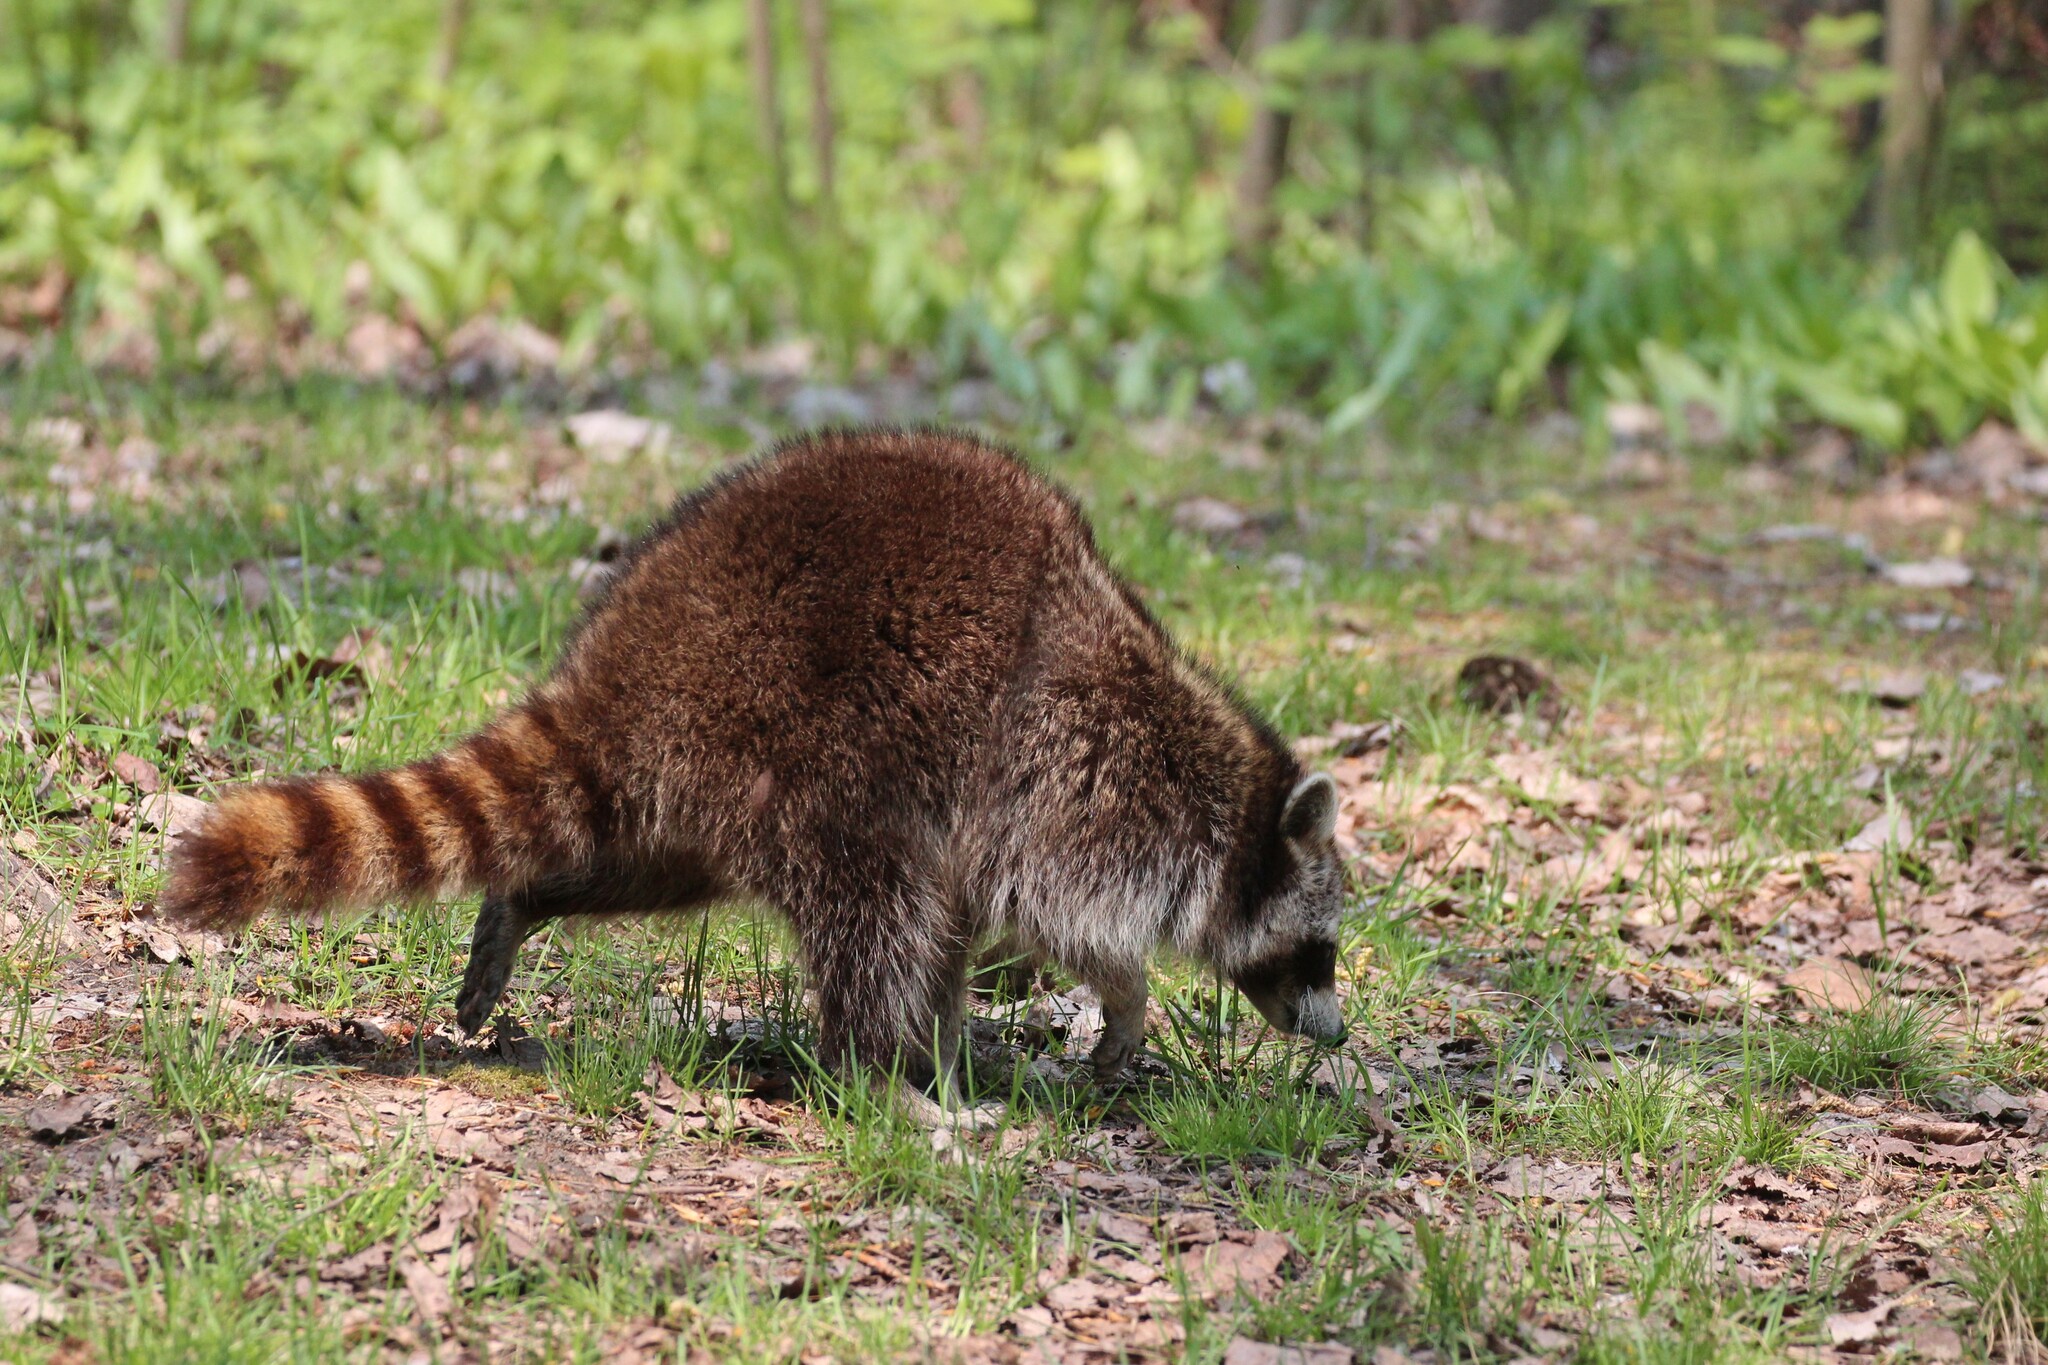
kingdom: Animalia
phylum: Chordata
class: Mammalia
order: Carnivora
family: Procyonidae
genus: Procyon
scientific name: Procyon lotor
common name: Raccoon
